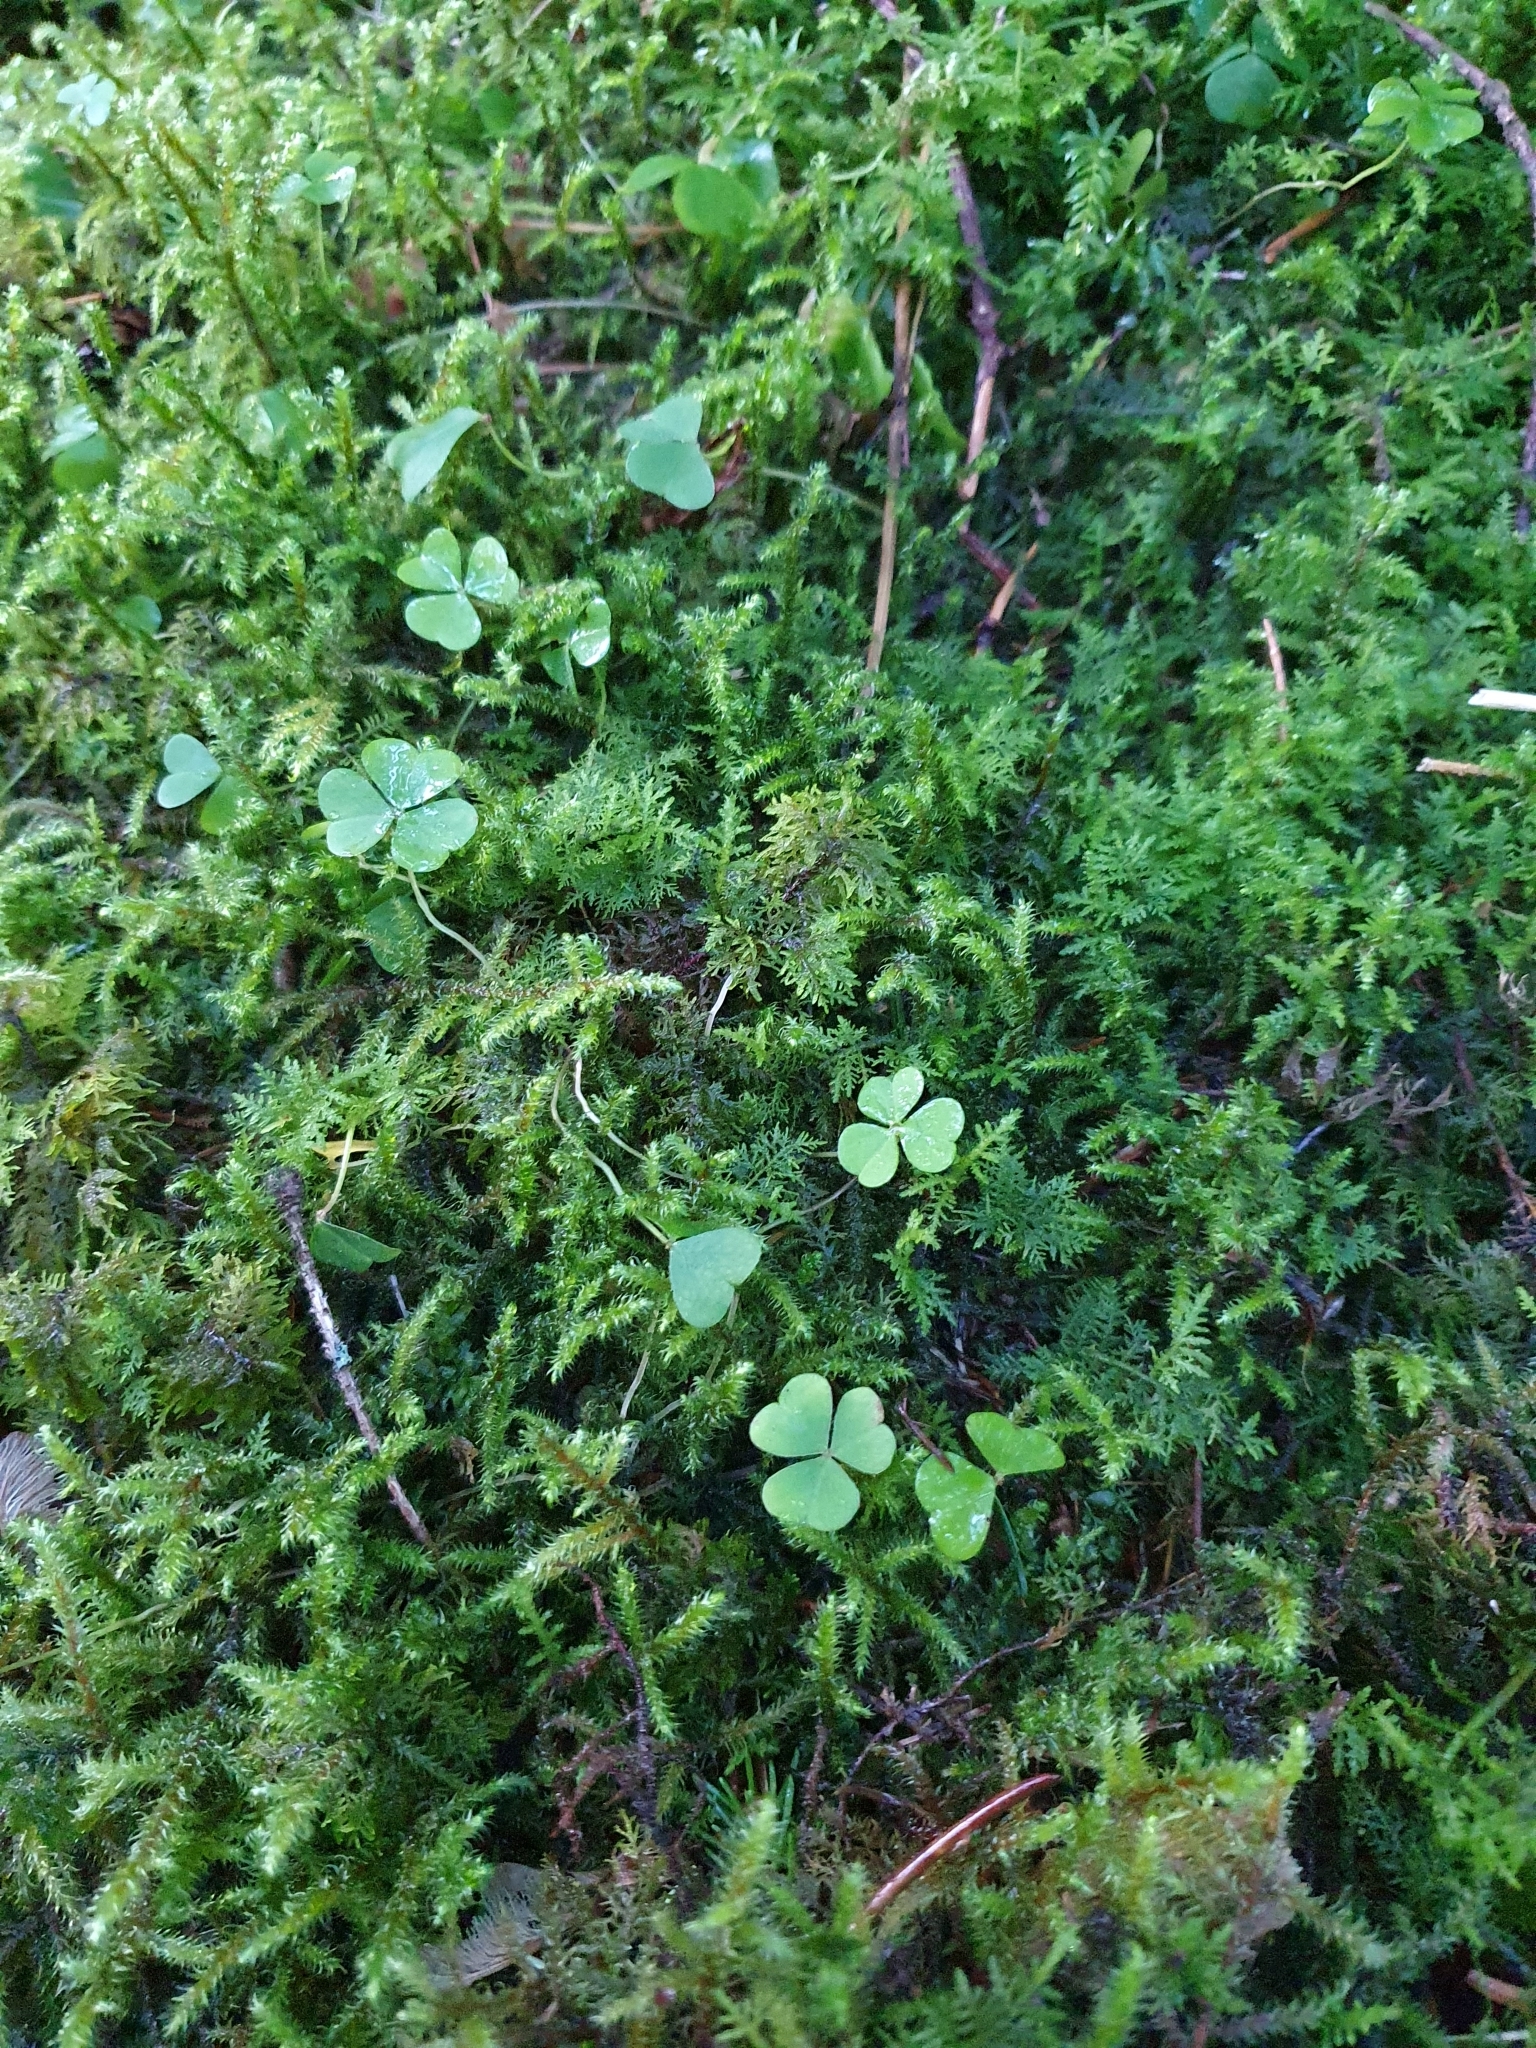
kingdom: Plantae
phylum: Tracheophyta
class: Magnoliopsida
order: Oxalidales
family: Oxalidaceae
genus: Oxalis
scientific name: Oxalis acetosella
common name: Wood-sorrel
